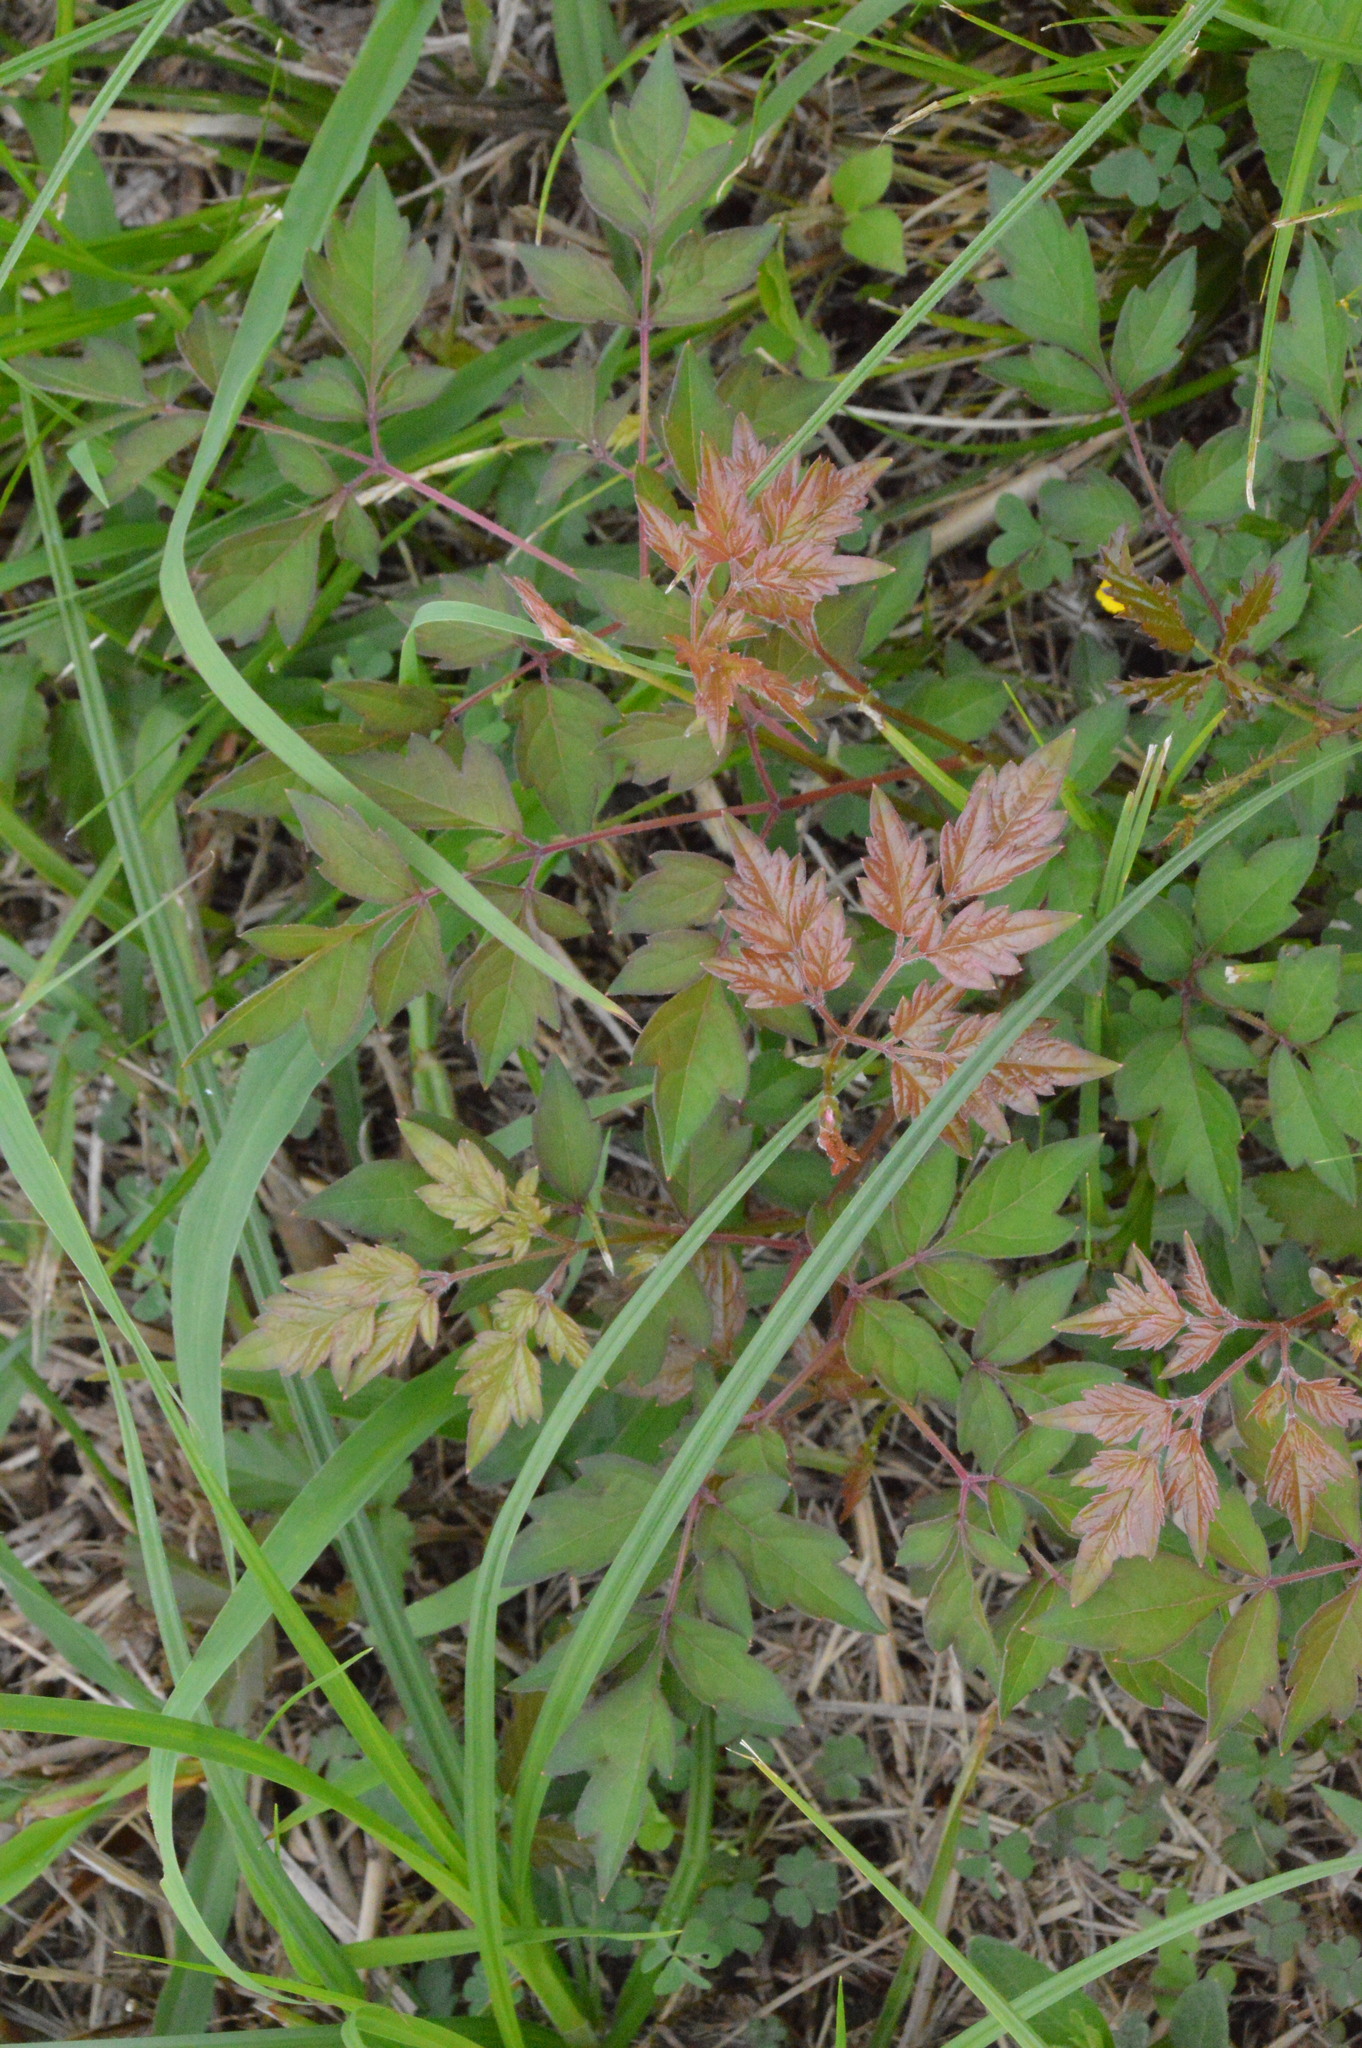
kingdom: Plantae
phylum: Tracheophyta
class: Magnoliopsida
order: Vitales
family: Vitaceae
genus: Nekemias
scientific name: Nekemias arborea
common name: Peppervine
